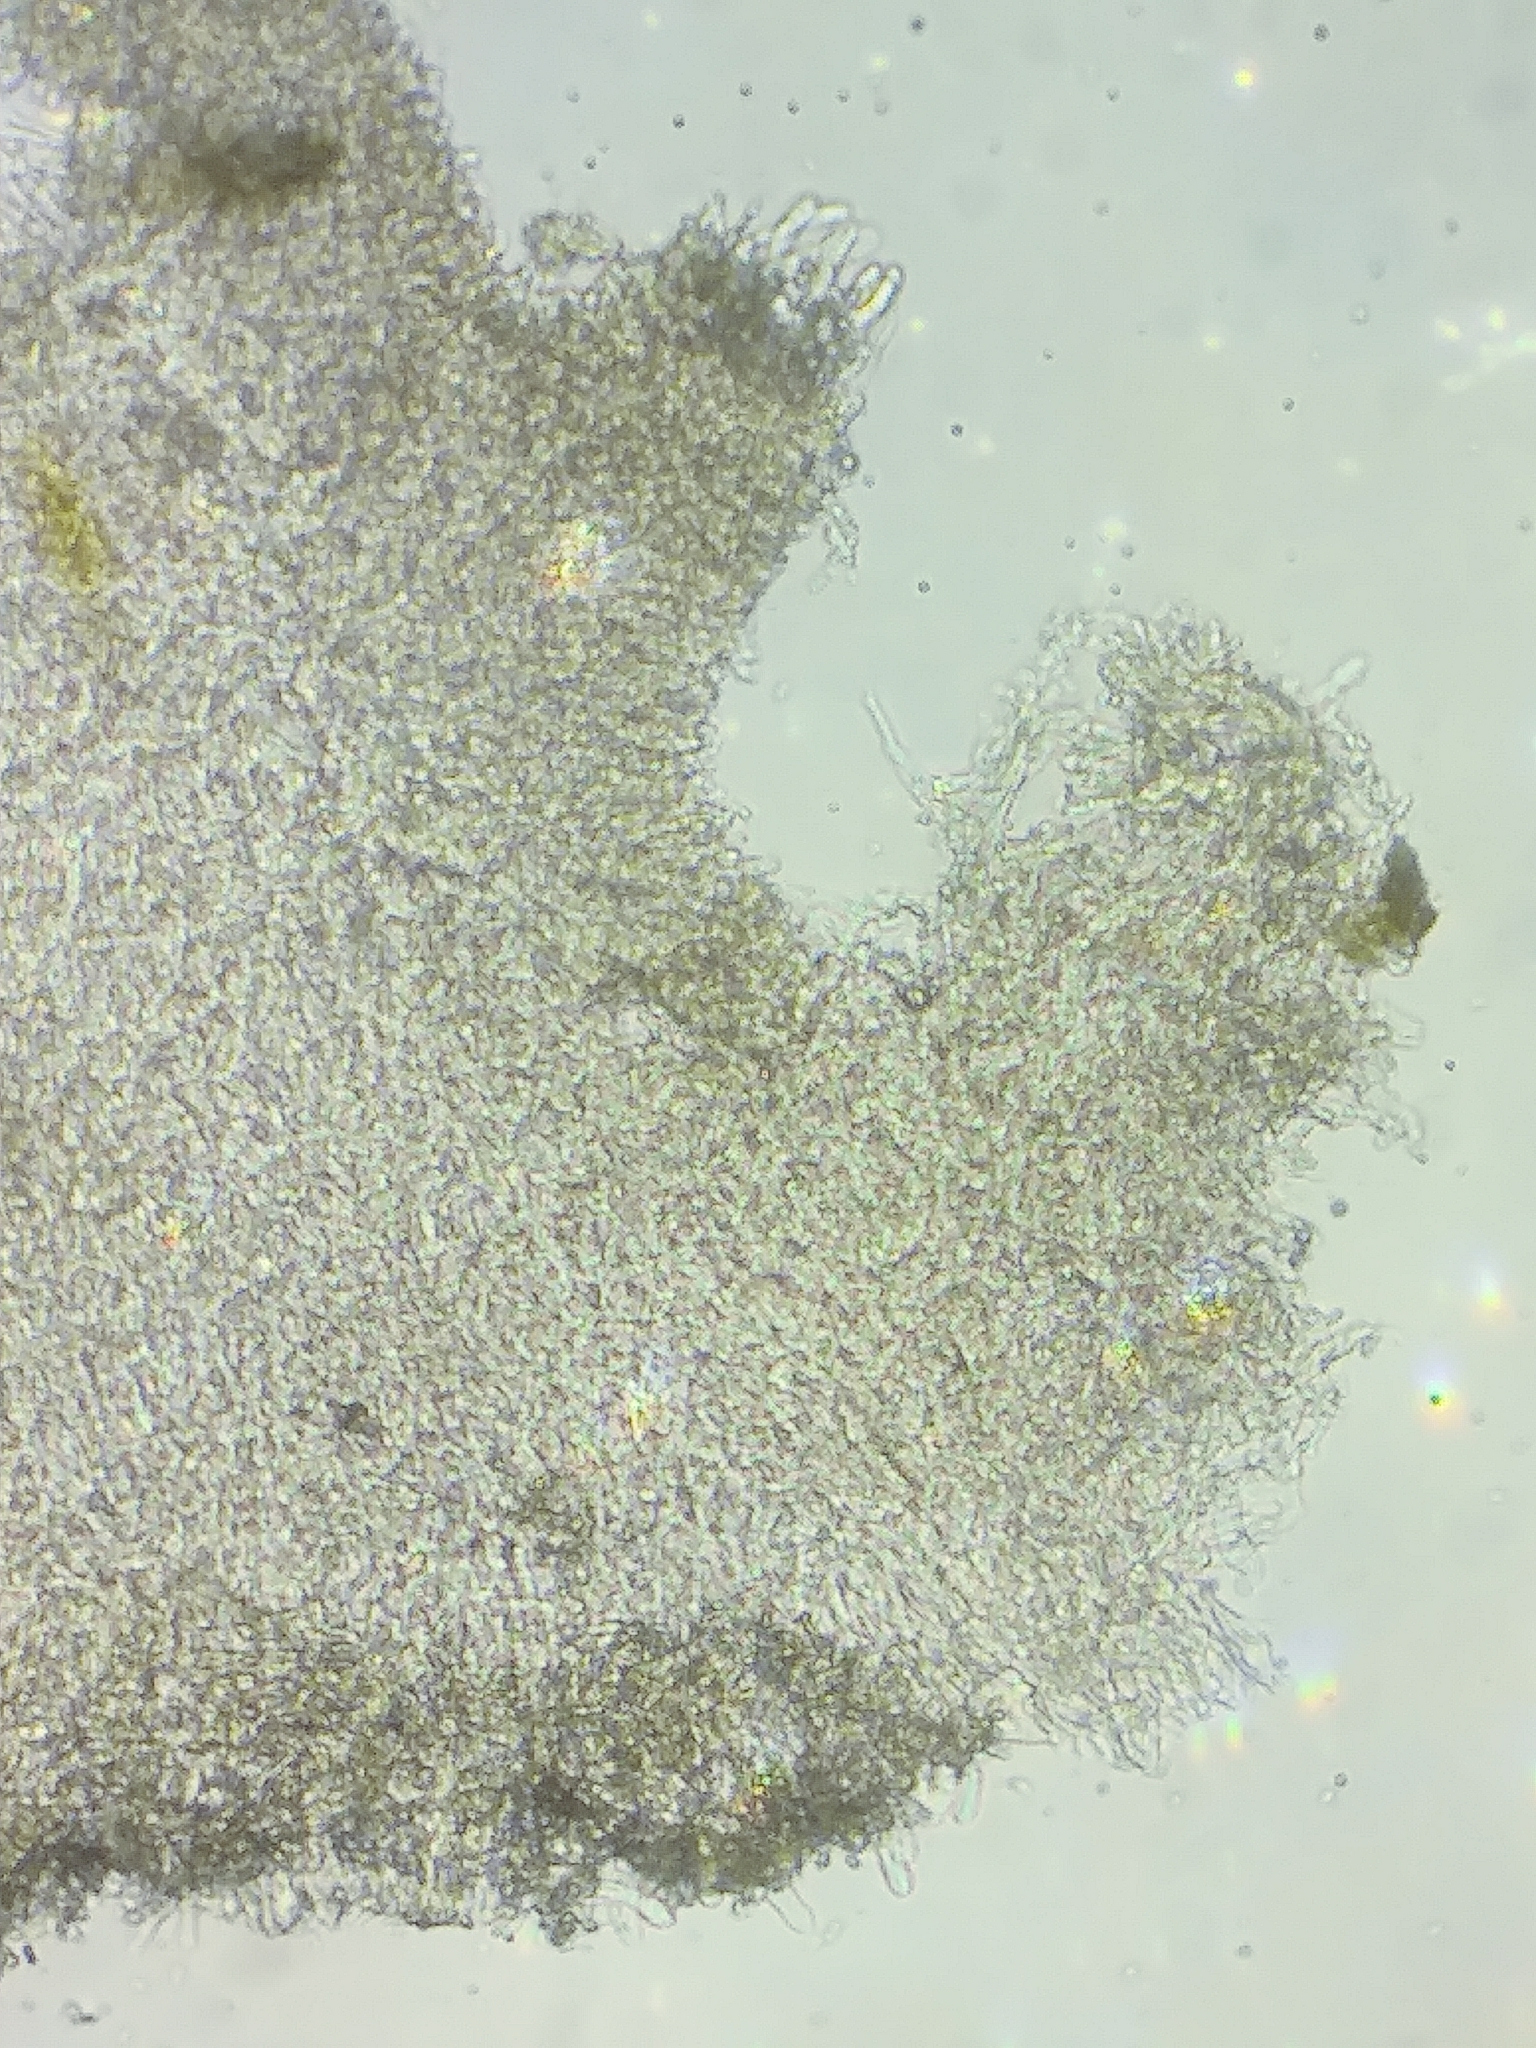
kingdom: Fungi
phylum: Basidiomycota
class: Agaricomycetes
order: Agaricales
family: Mycenaceae
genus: Resinomycena
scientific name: Resinomycena rhododendri
